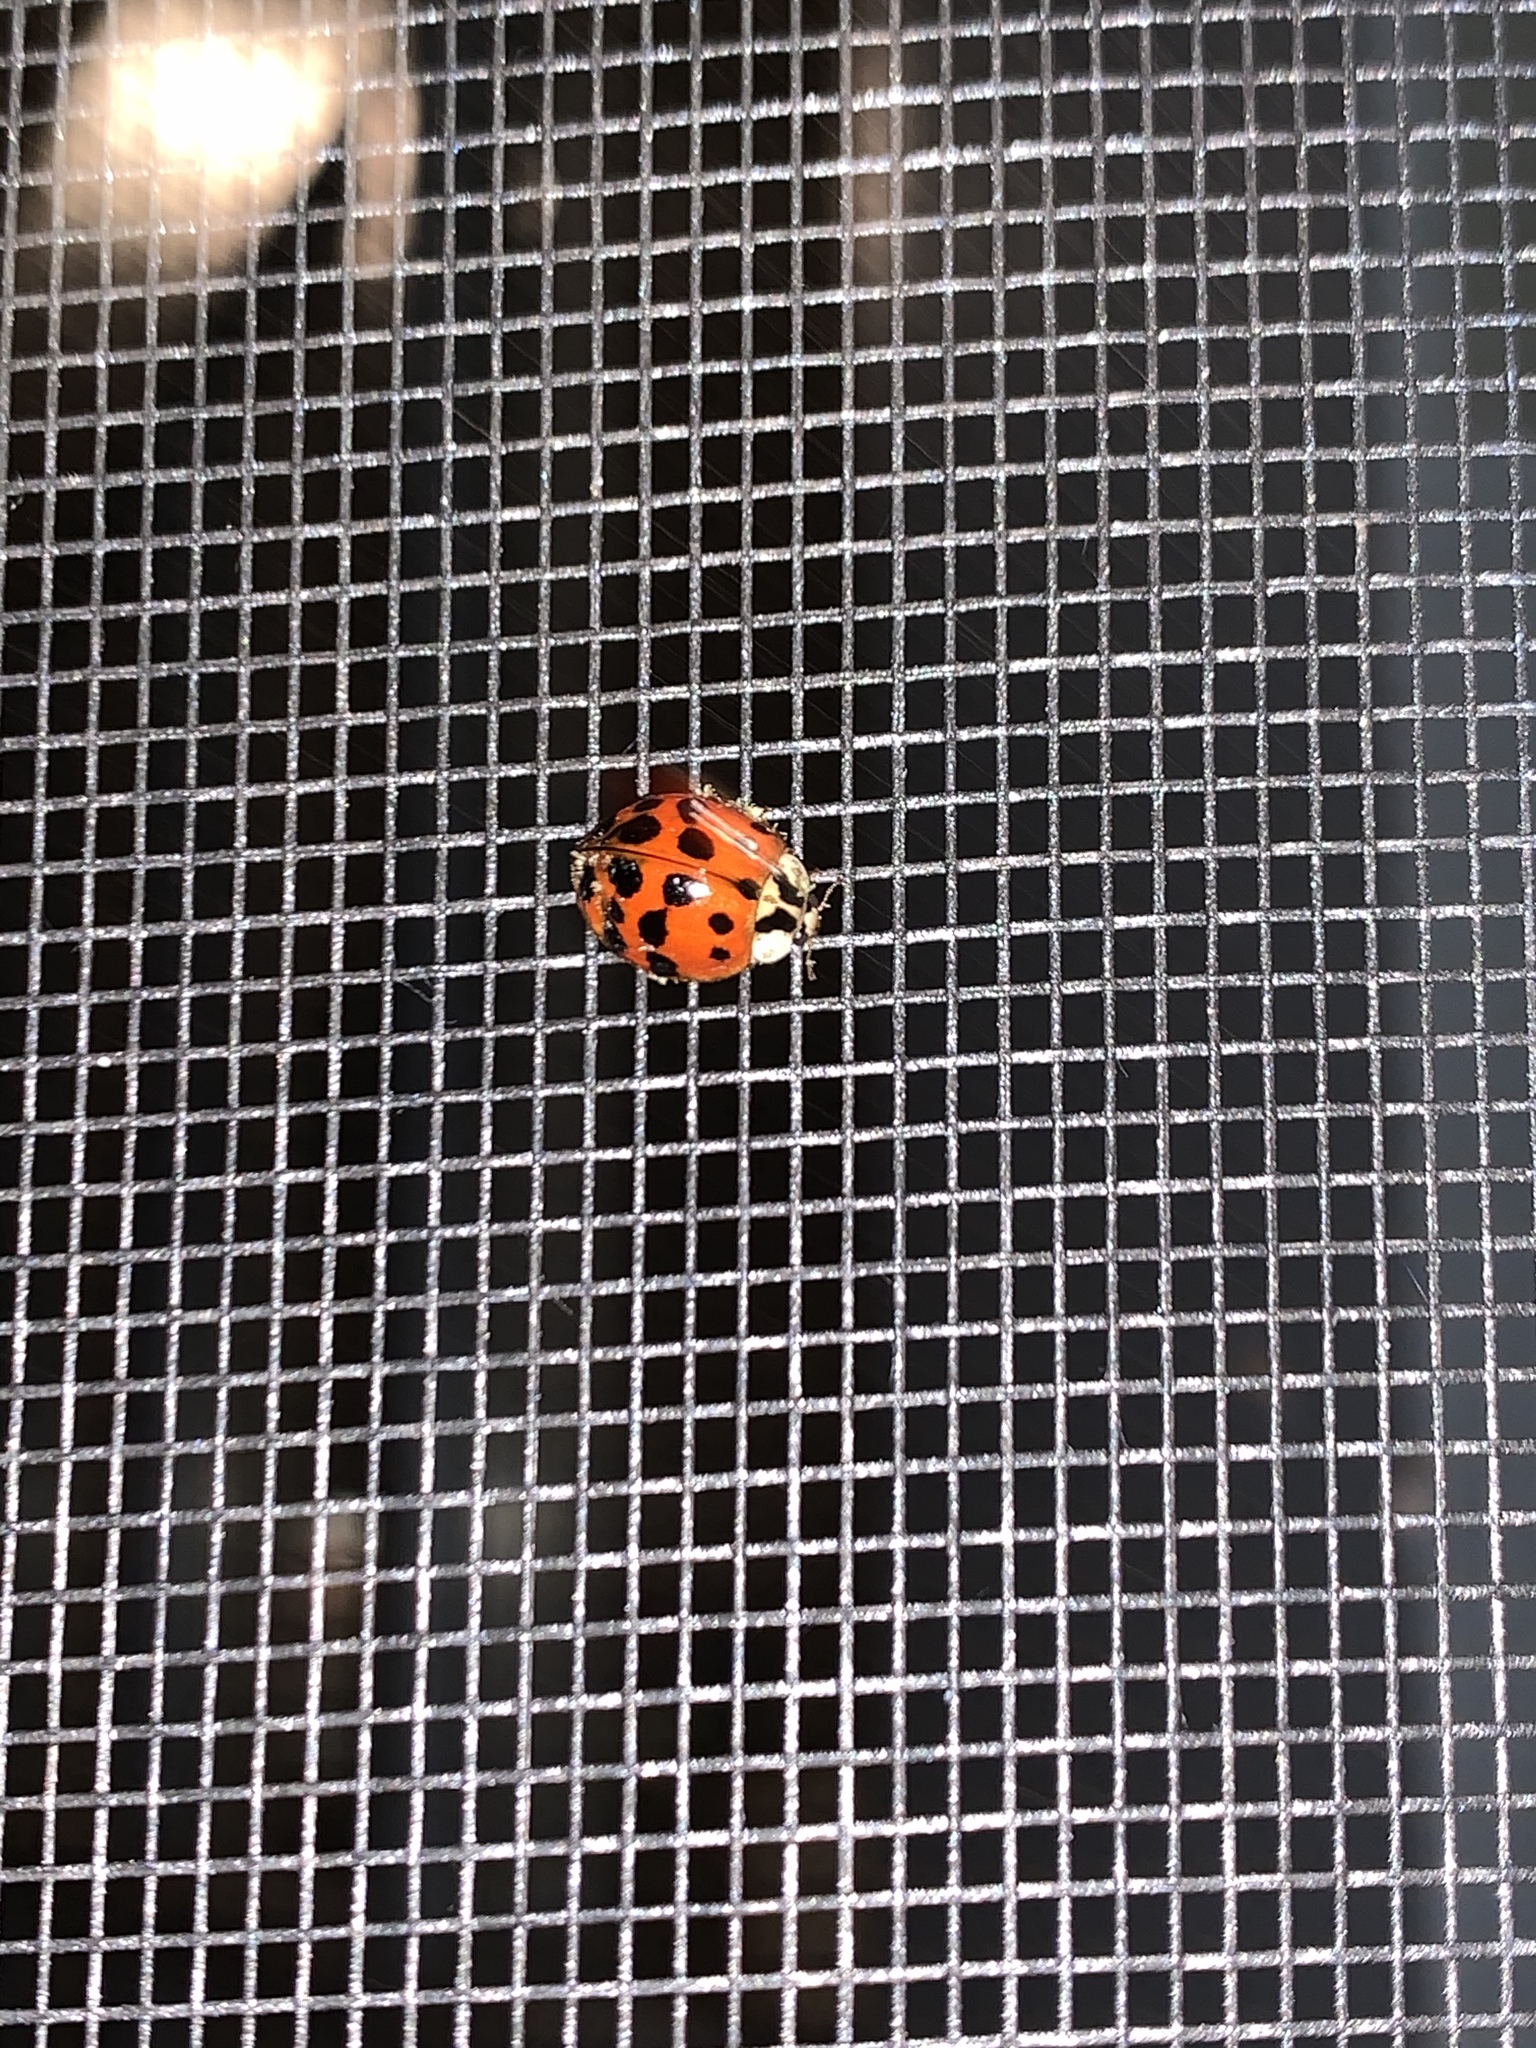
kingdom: Animalia
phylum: Arthropoda
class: Insecta
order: Coleoptera
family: Coccinellidae
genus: Harmonia
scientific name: Harmonia axyridis
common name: Harlequin ladybird
